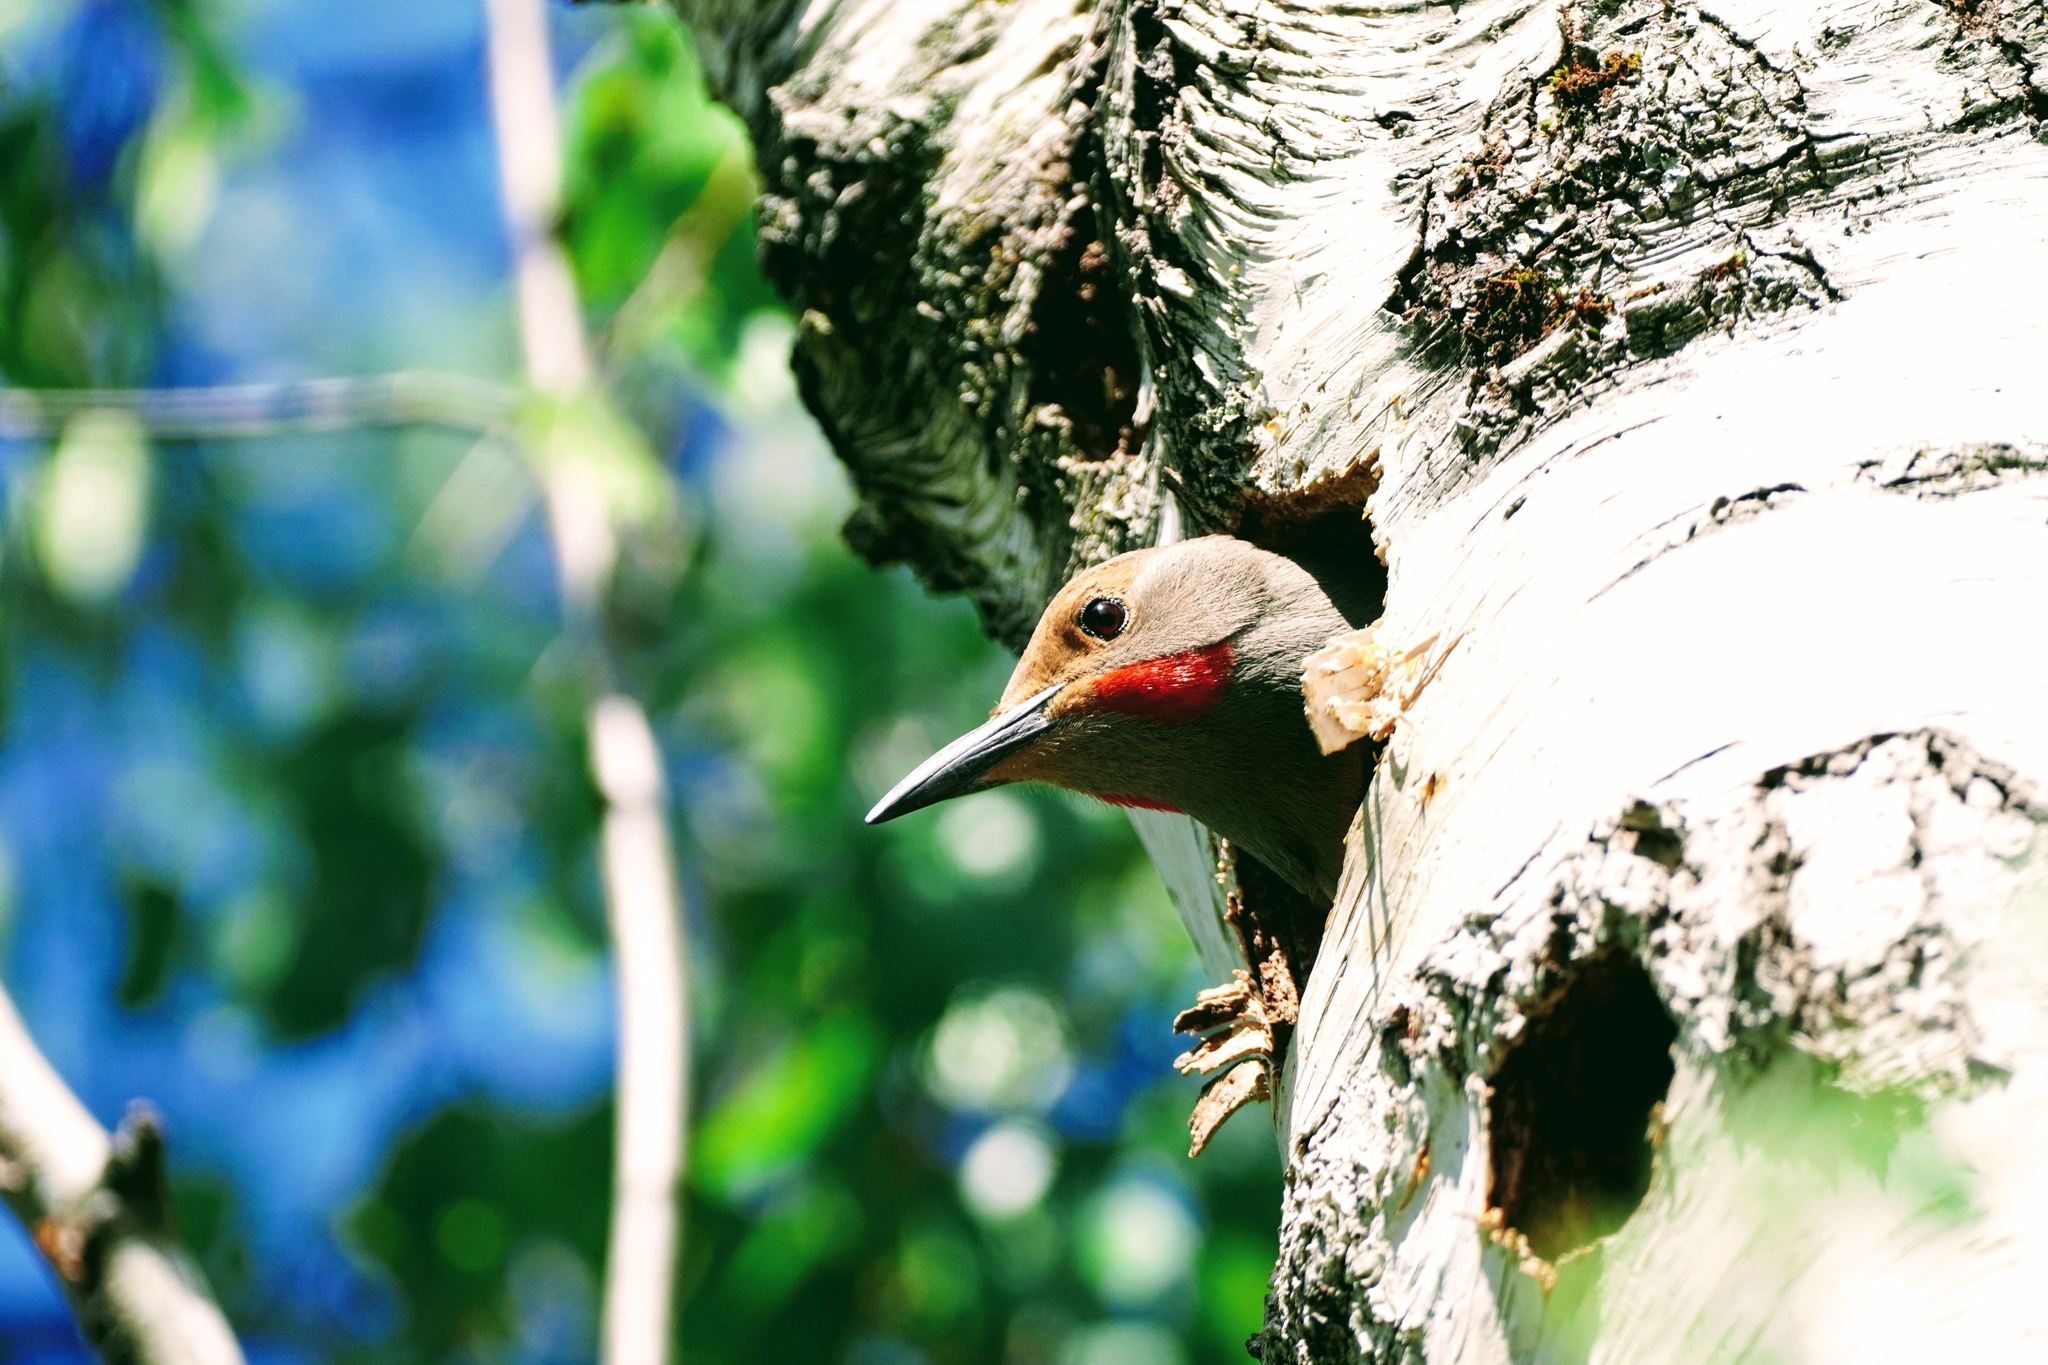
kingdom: Animalia
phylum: Chordata
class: Aves
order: Piciformes
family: Picidae
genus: Colaptes
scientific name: Colaptes auratus
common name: Northern flicker
